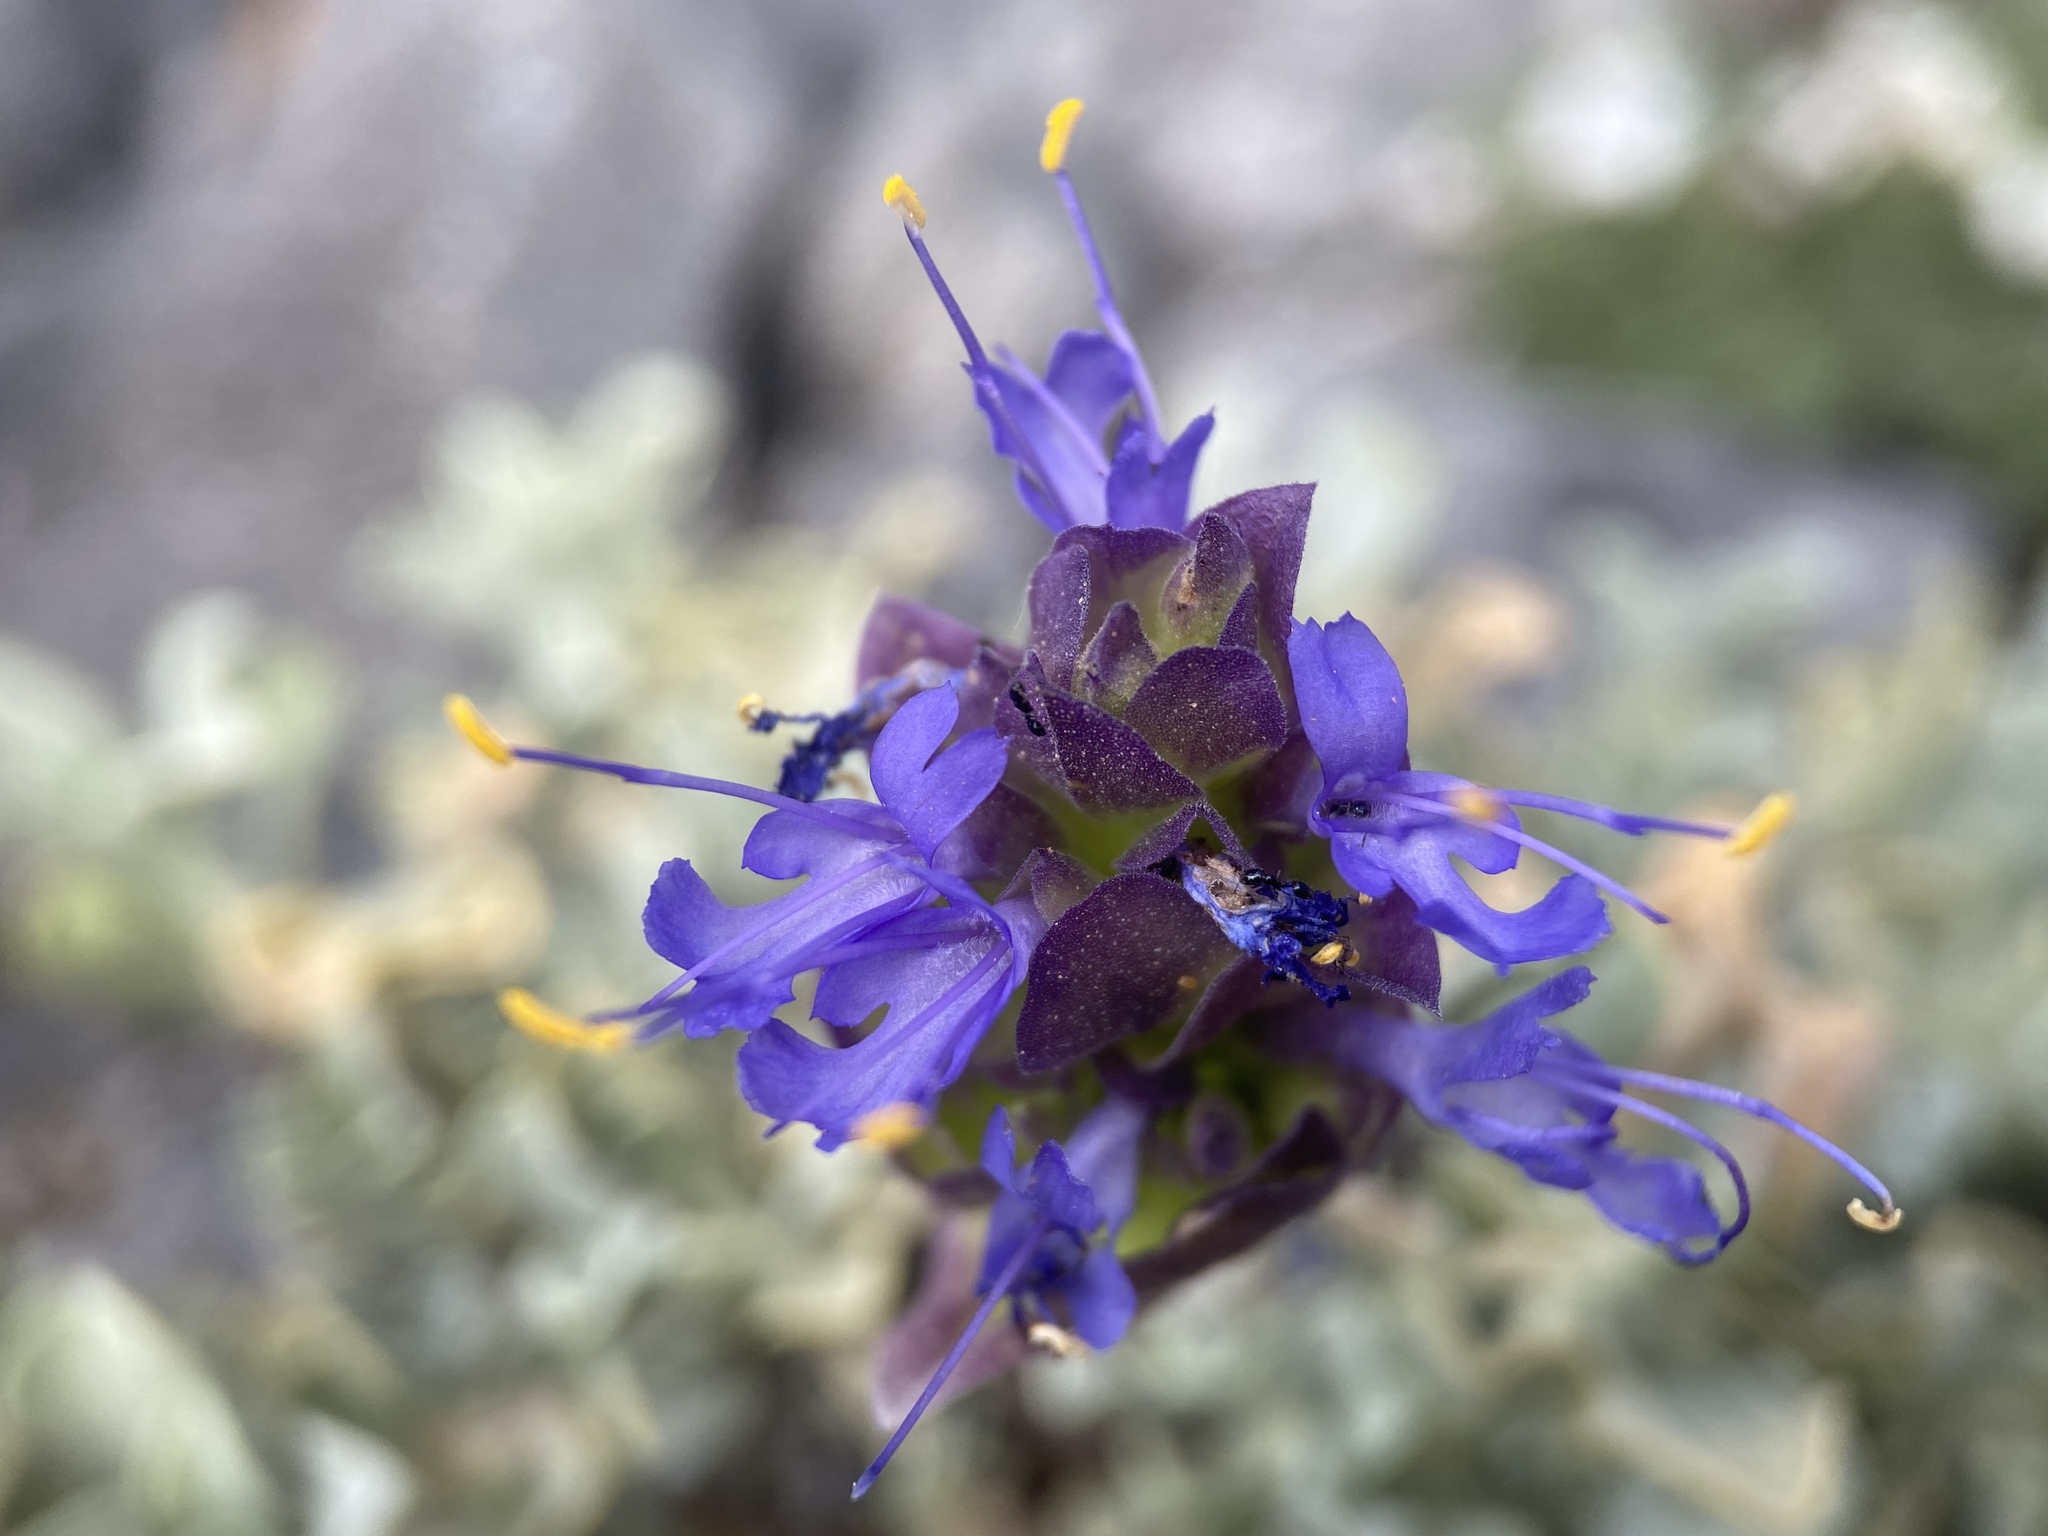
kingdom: Plantae
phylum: Tracheophyta
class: Magnoliopsida
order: Lamiales
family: Lamiaceae
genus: Salvia
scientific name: Salvia dorrii
